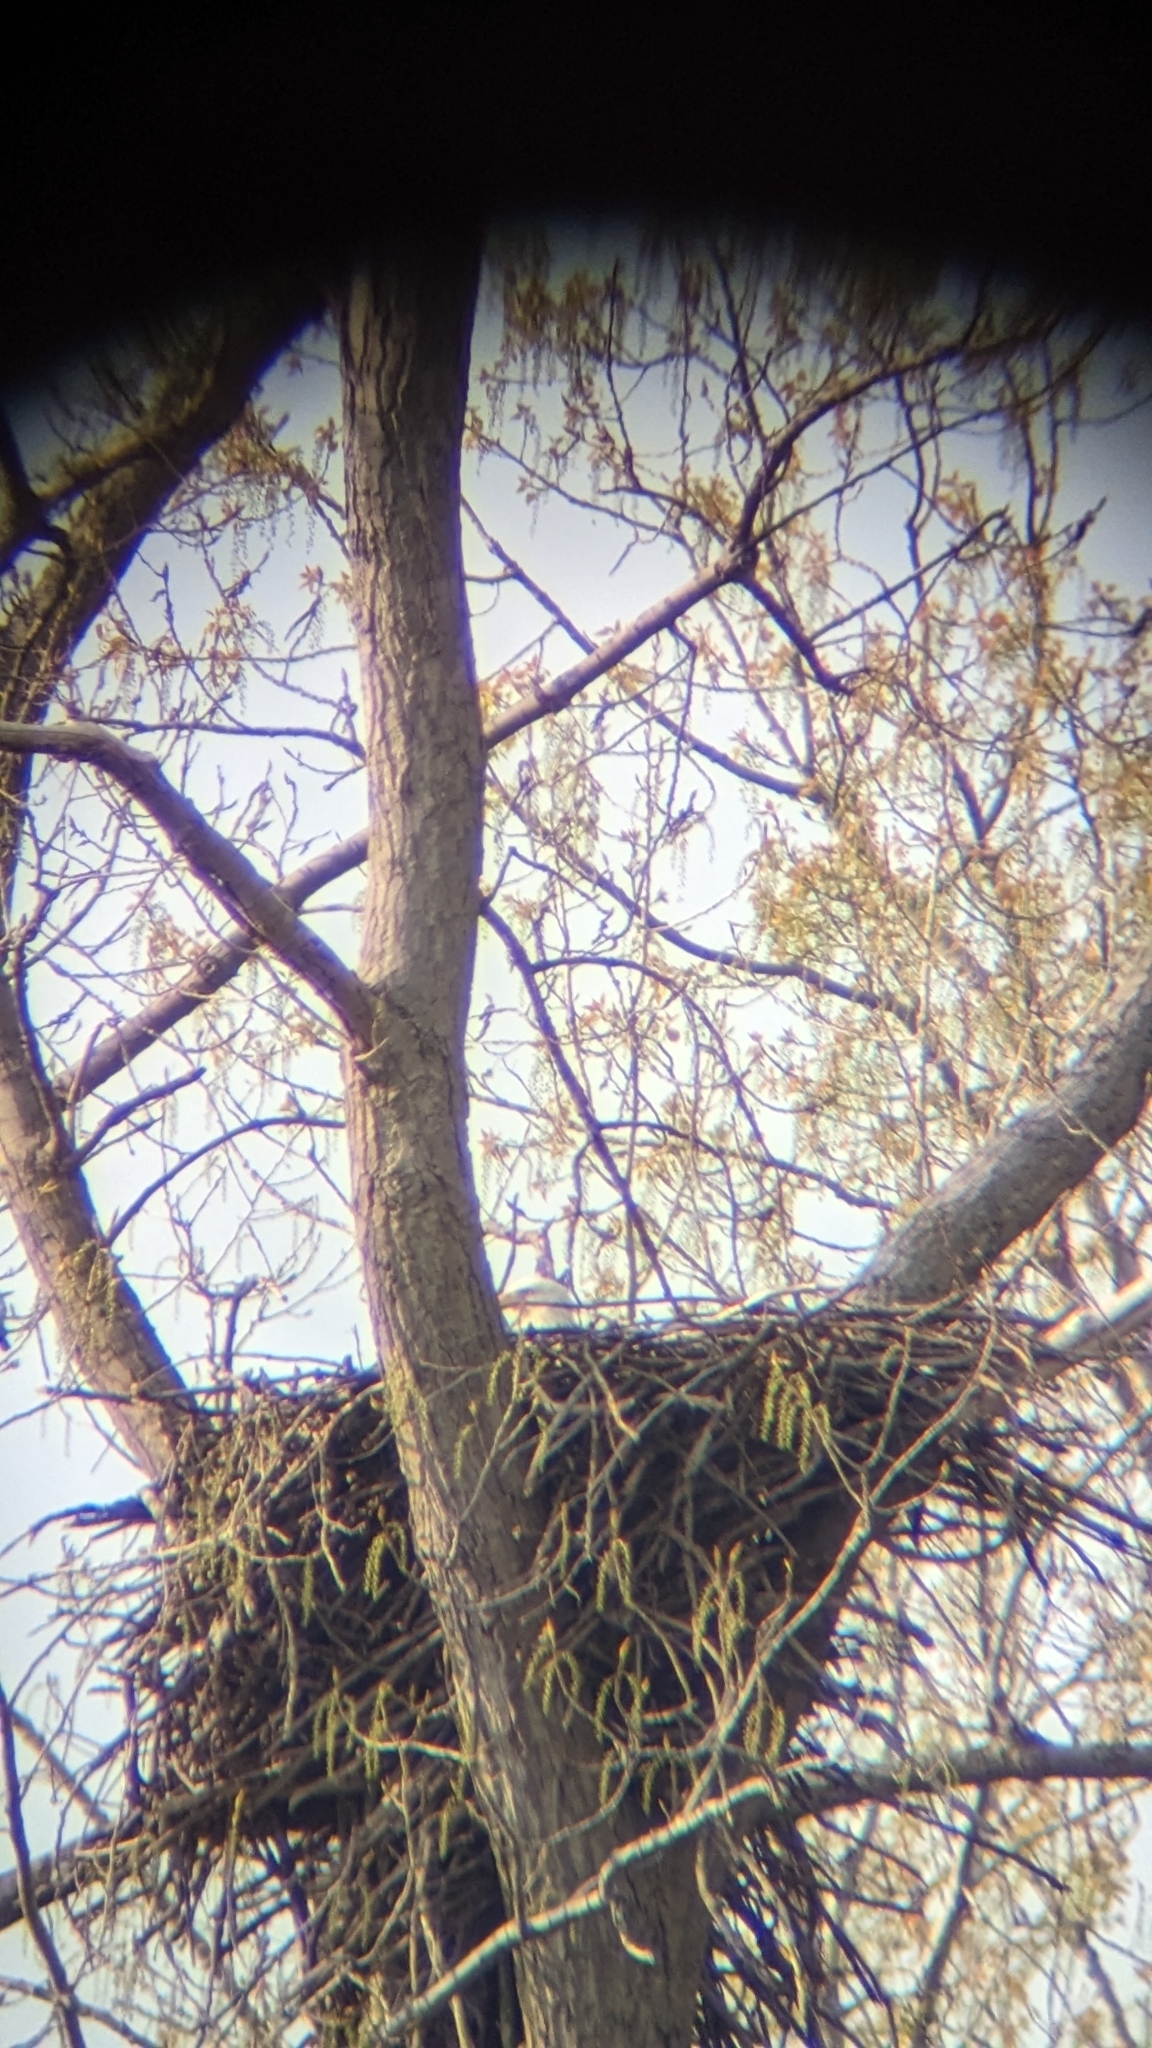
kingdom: Animalia
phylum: Chordata
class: Aves
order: Accipitriformes
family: Accipitridae
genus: Haliaeetus
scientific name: Haliaeetus leucocephalus
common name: Bald eagle
